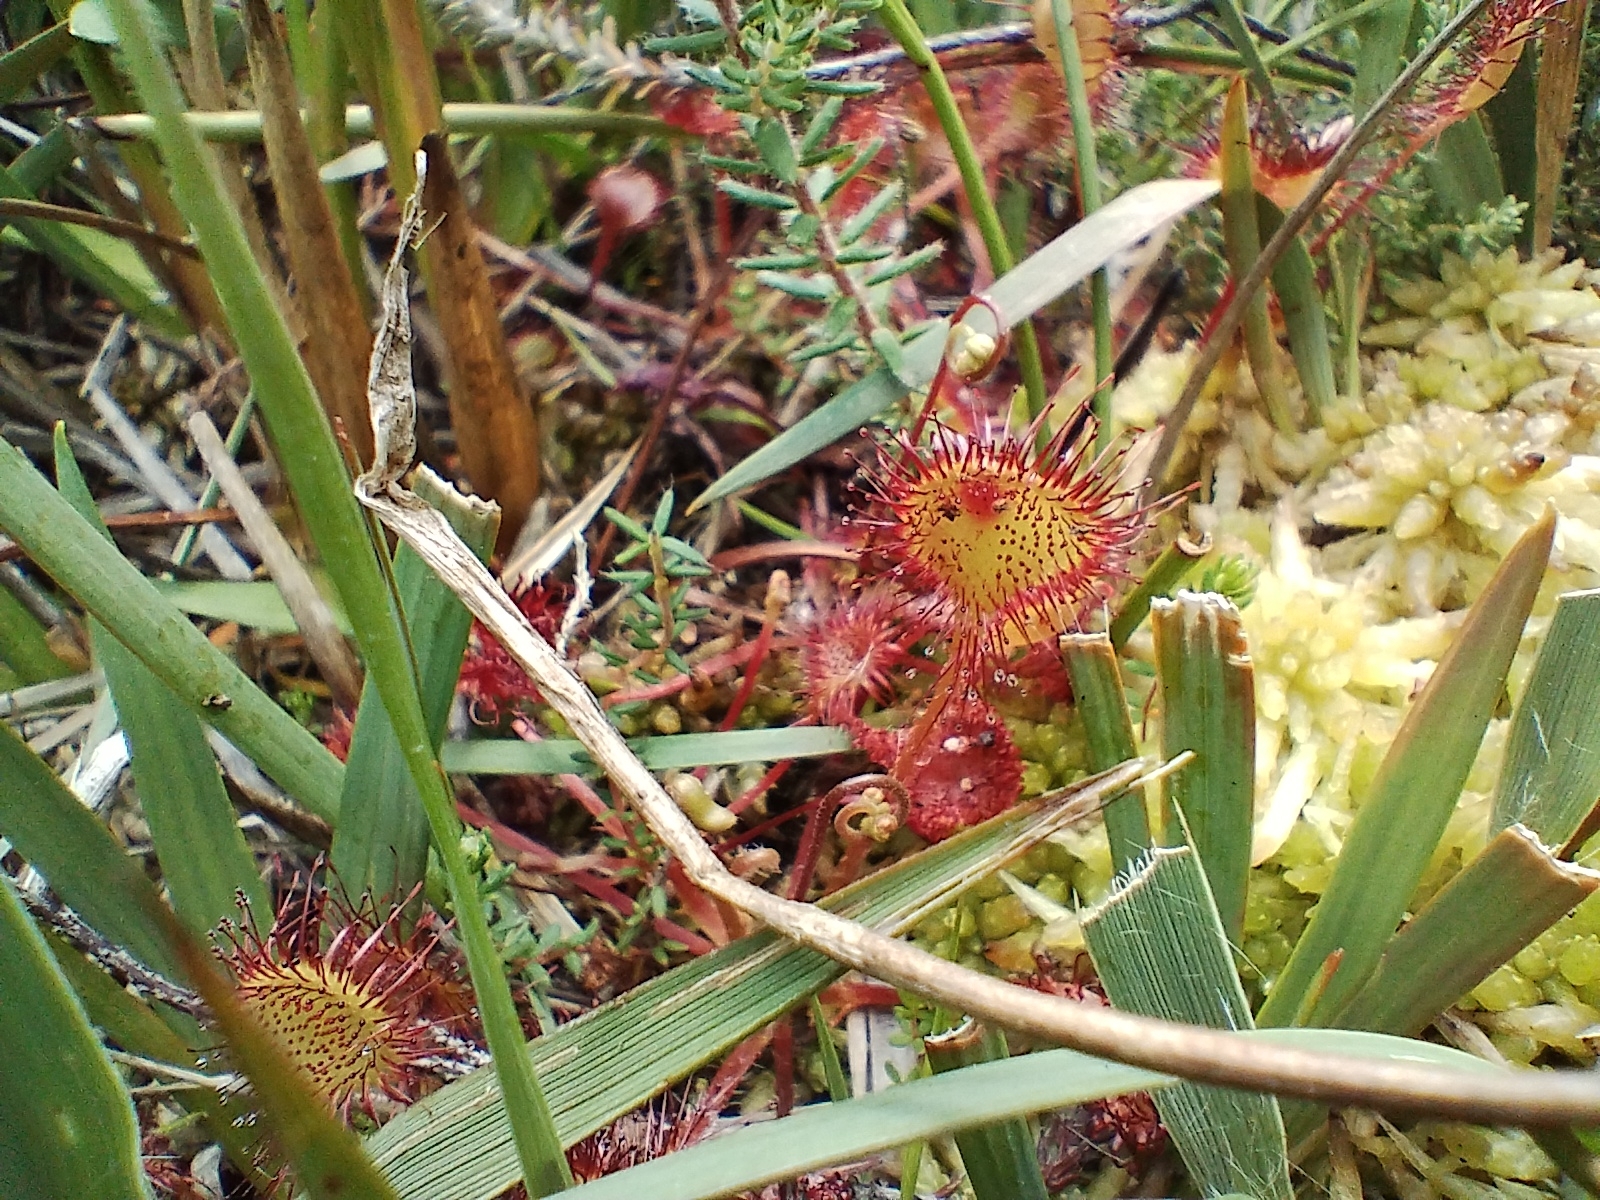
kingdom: Plantae
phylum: Tracheophyta
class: Magnoliopsida
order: Caryophyllales
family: Droseraceae
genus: Drosera
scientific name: Drosera rotundifolia
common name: Round-leaved sundew
